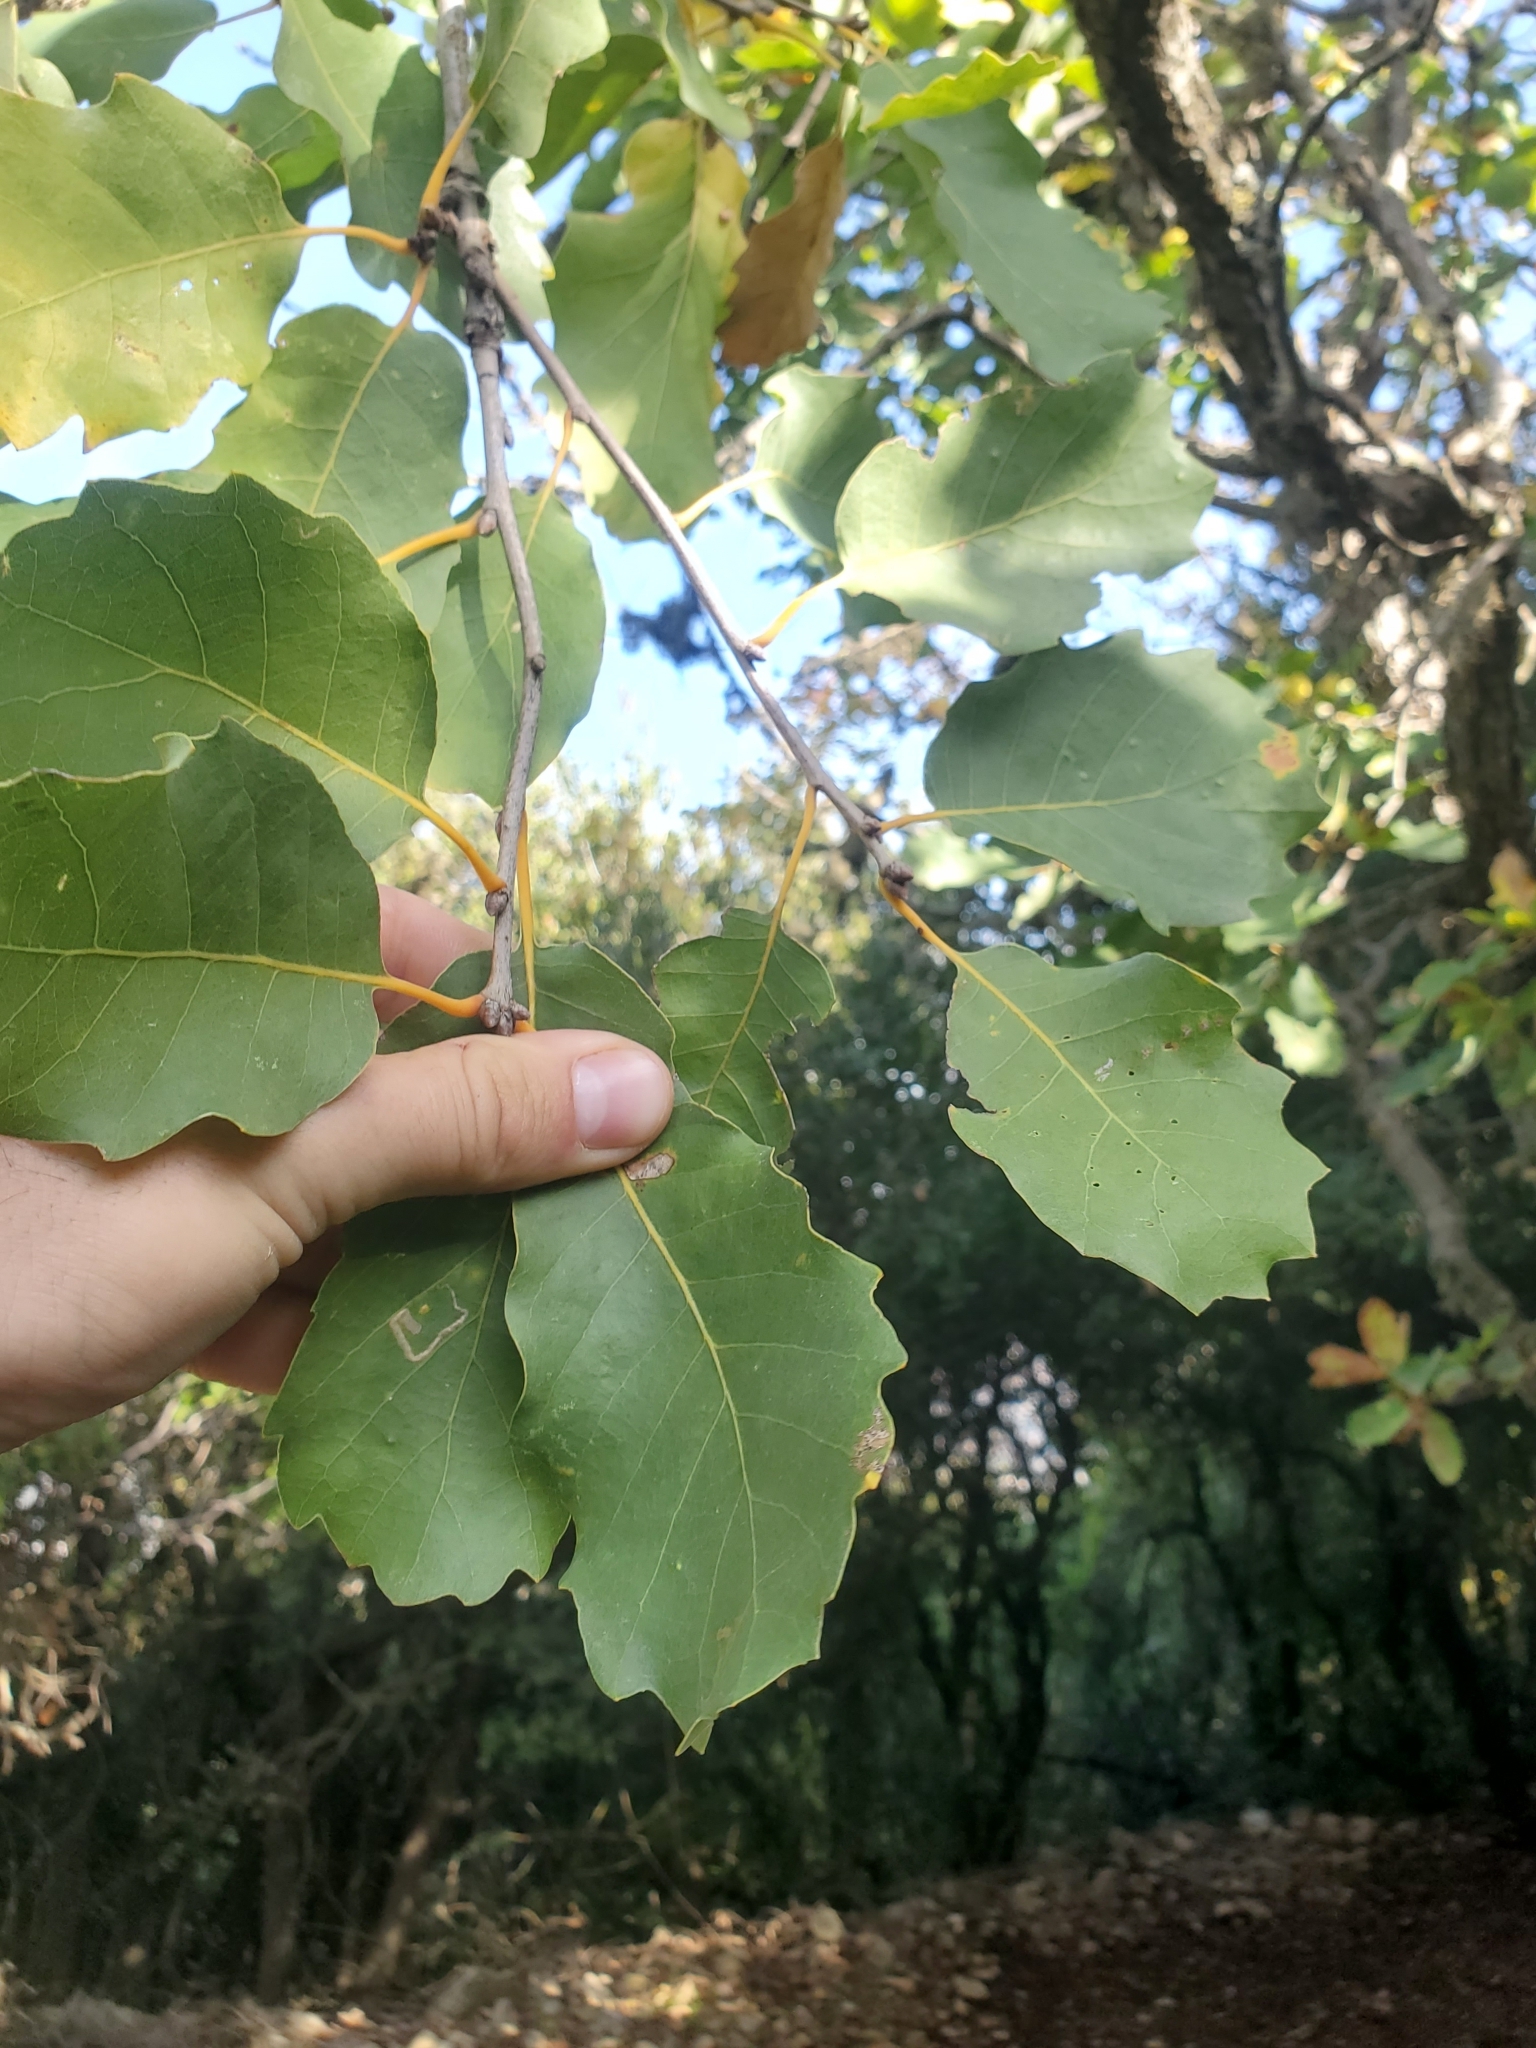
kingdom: Plantae
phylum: Tracheophyta
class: Magnoliopsida
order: Fagales
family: Fagaceae
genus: Quercus
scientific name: Quercus infectoria
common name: Aleppo oak
